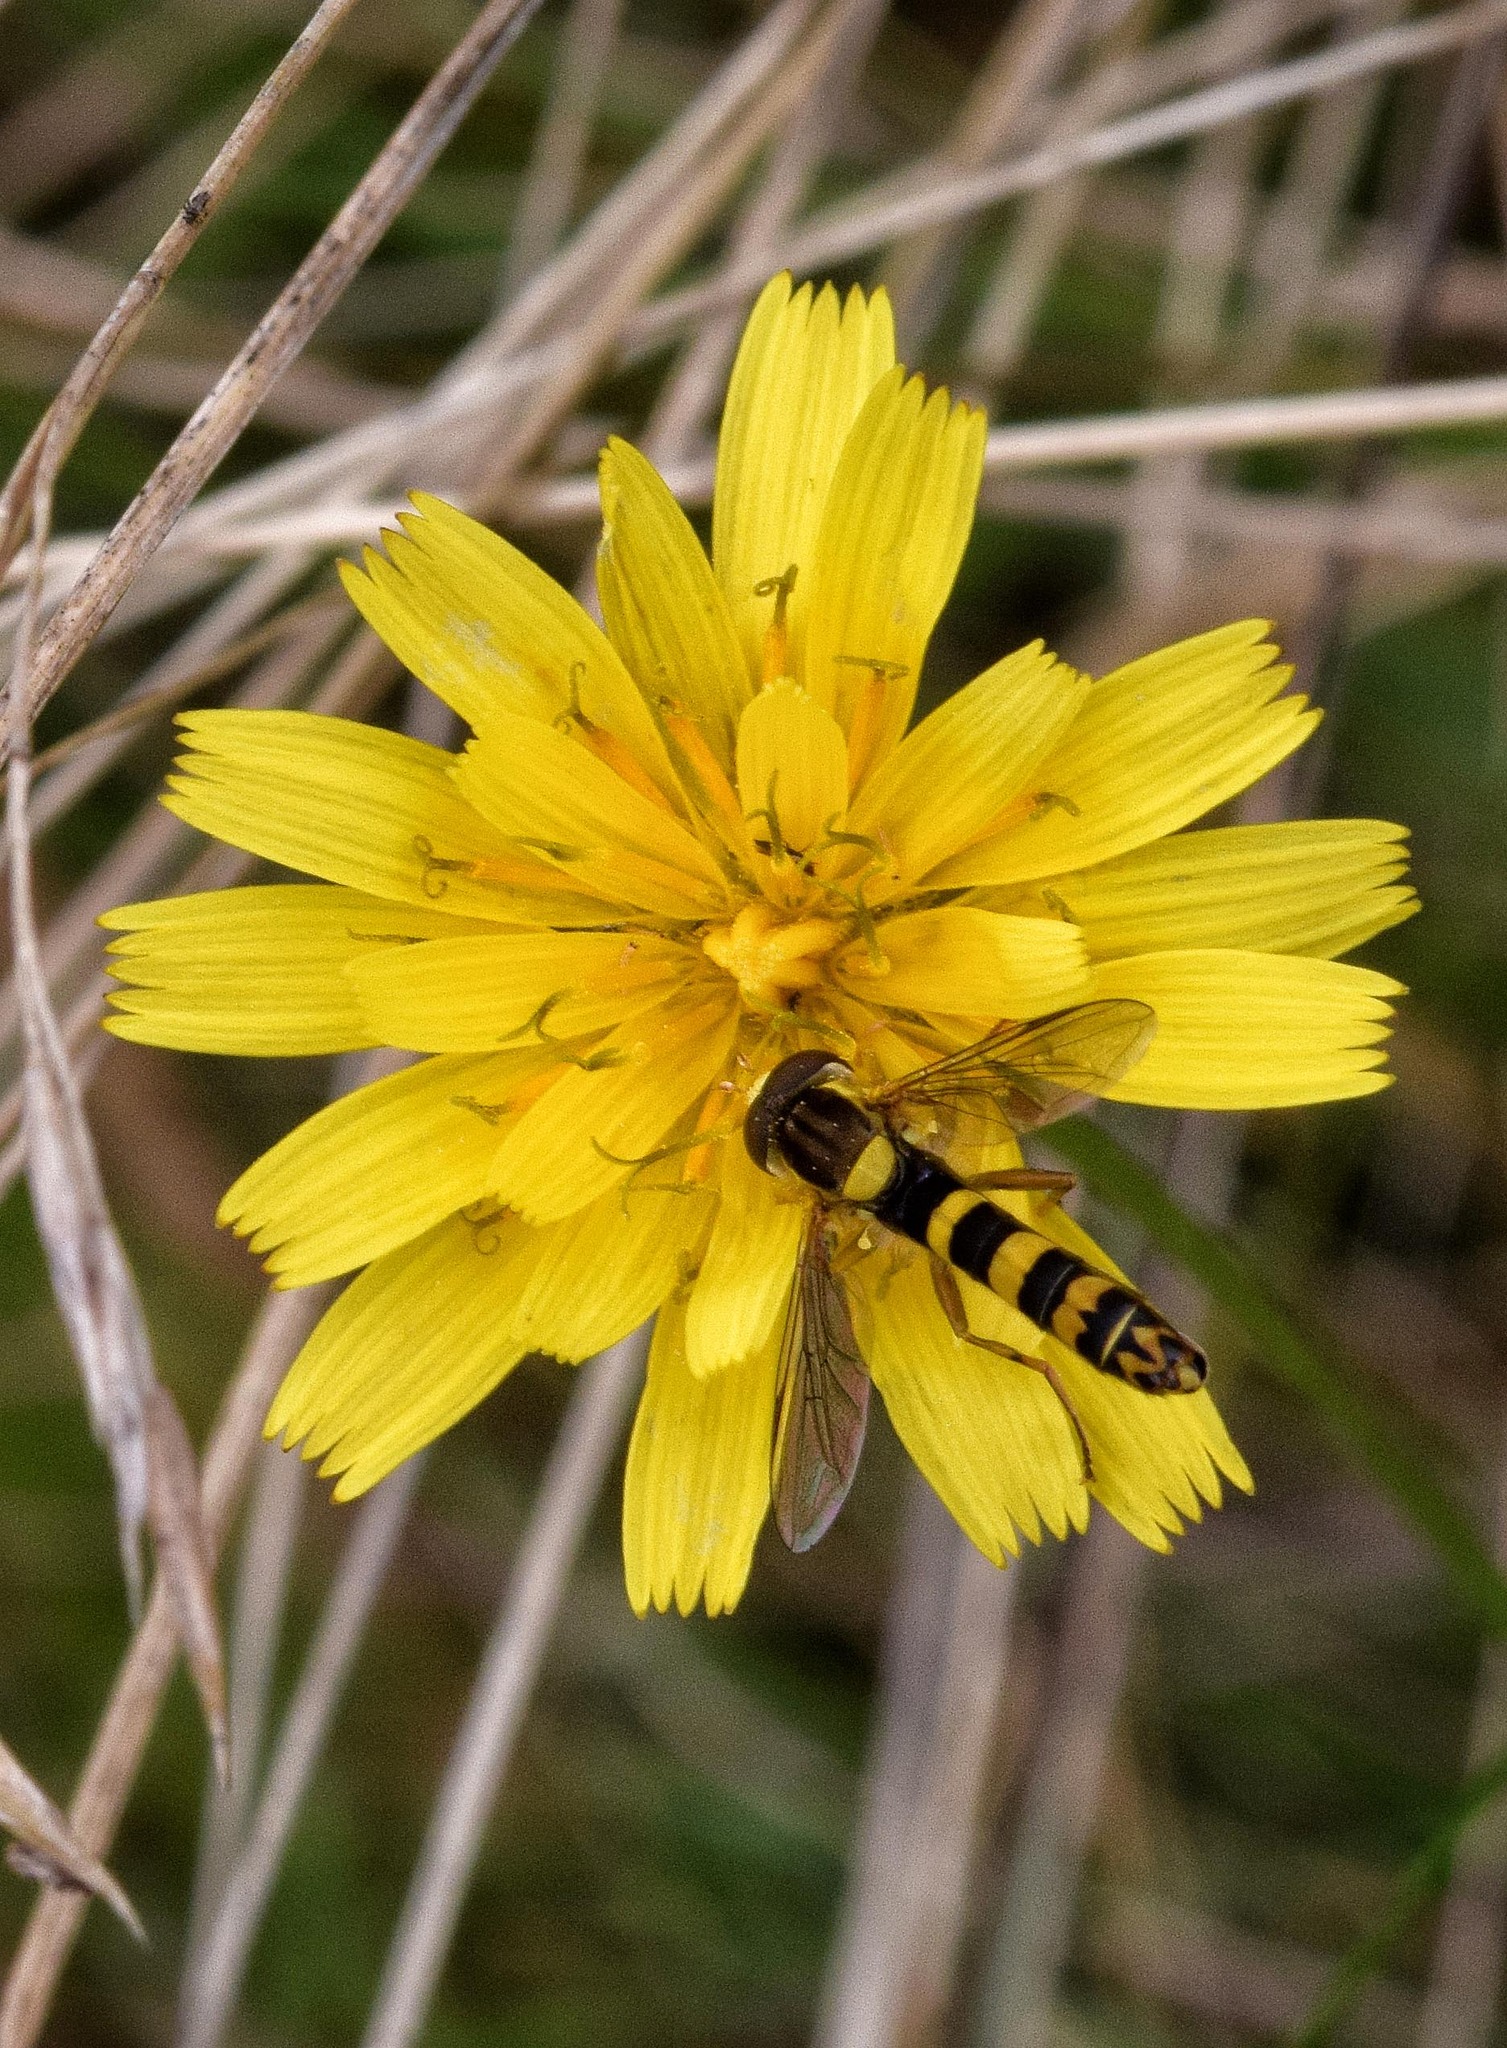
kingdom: Animalia
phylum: Arthropoda
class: Insecta
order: Diptera
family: Syrphidae
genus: Sphaerophoria
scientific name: Sphaerophoria scripta
